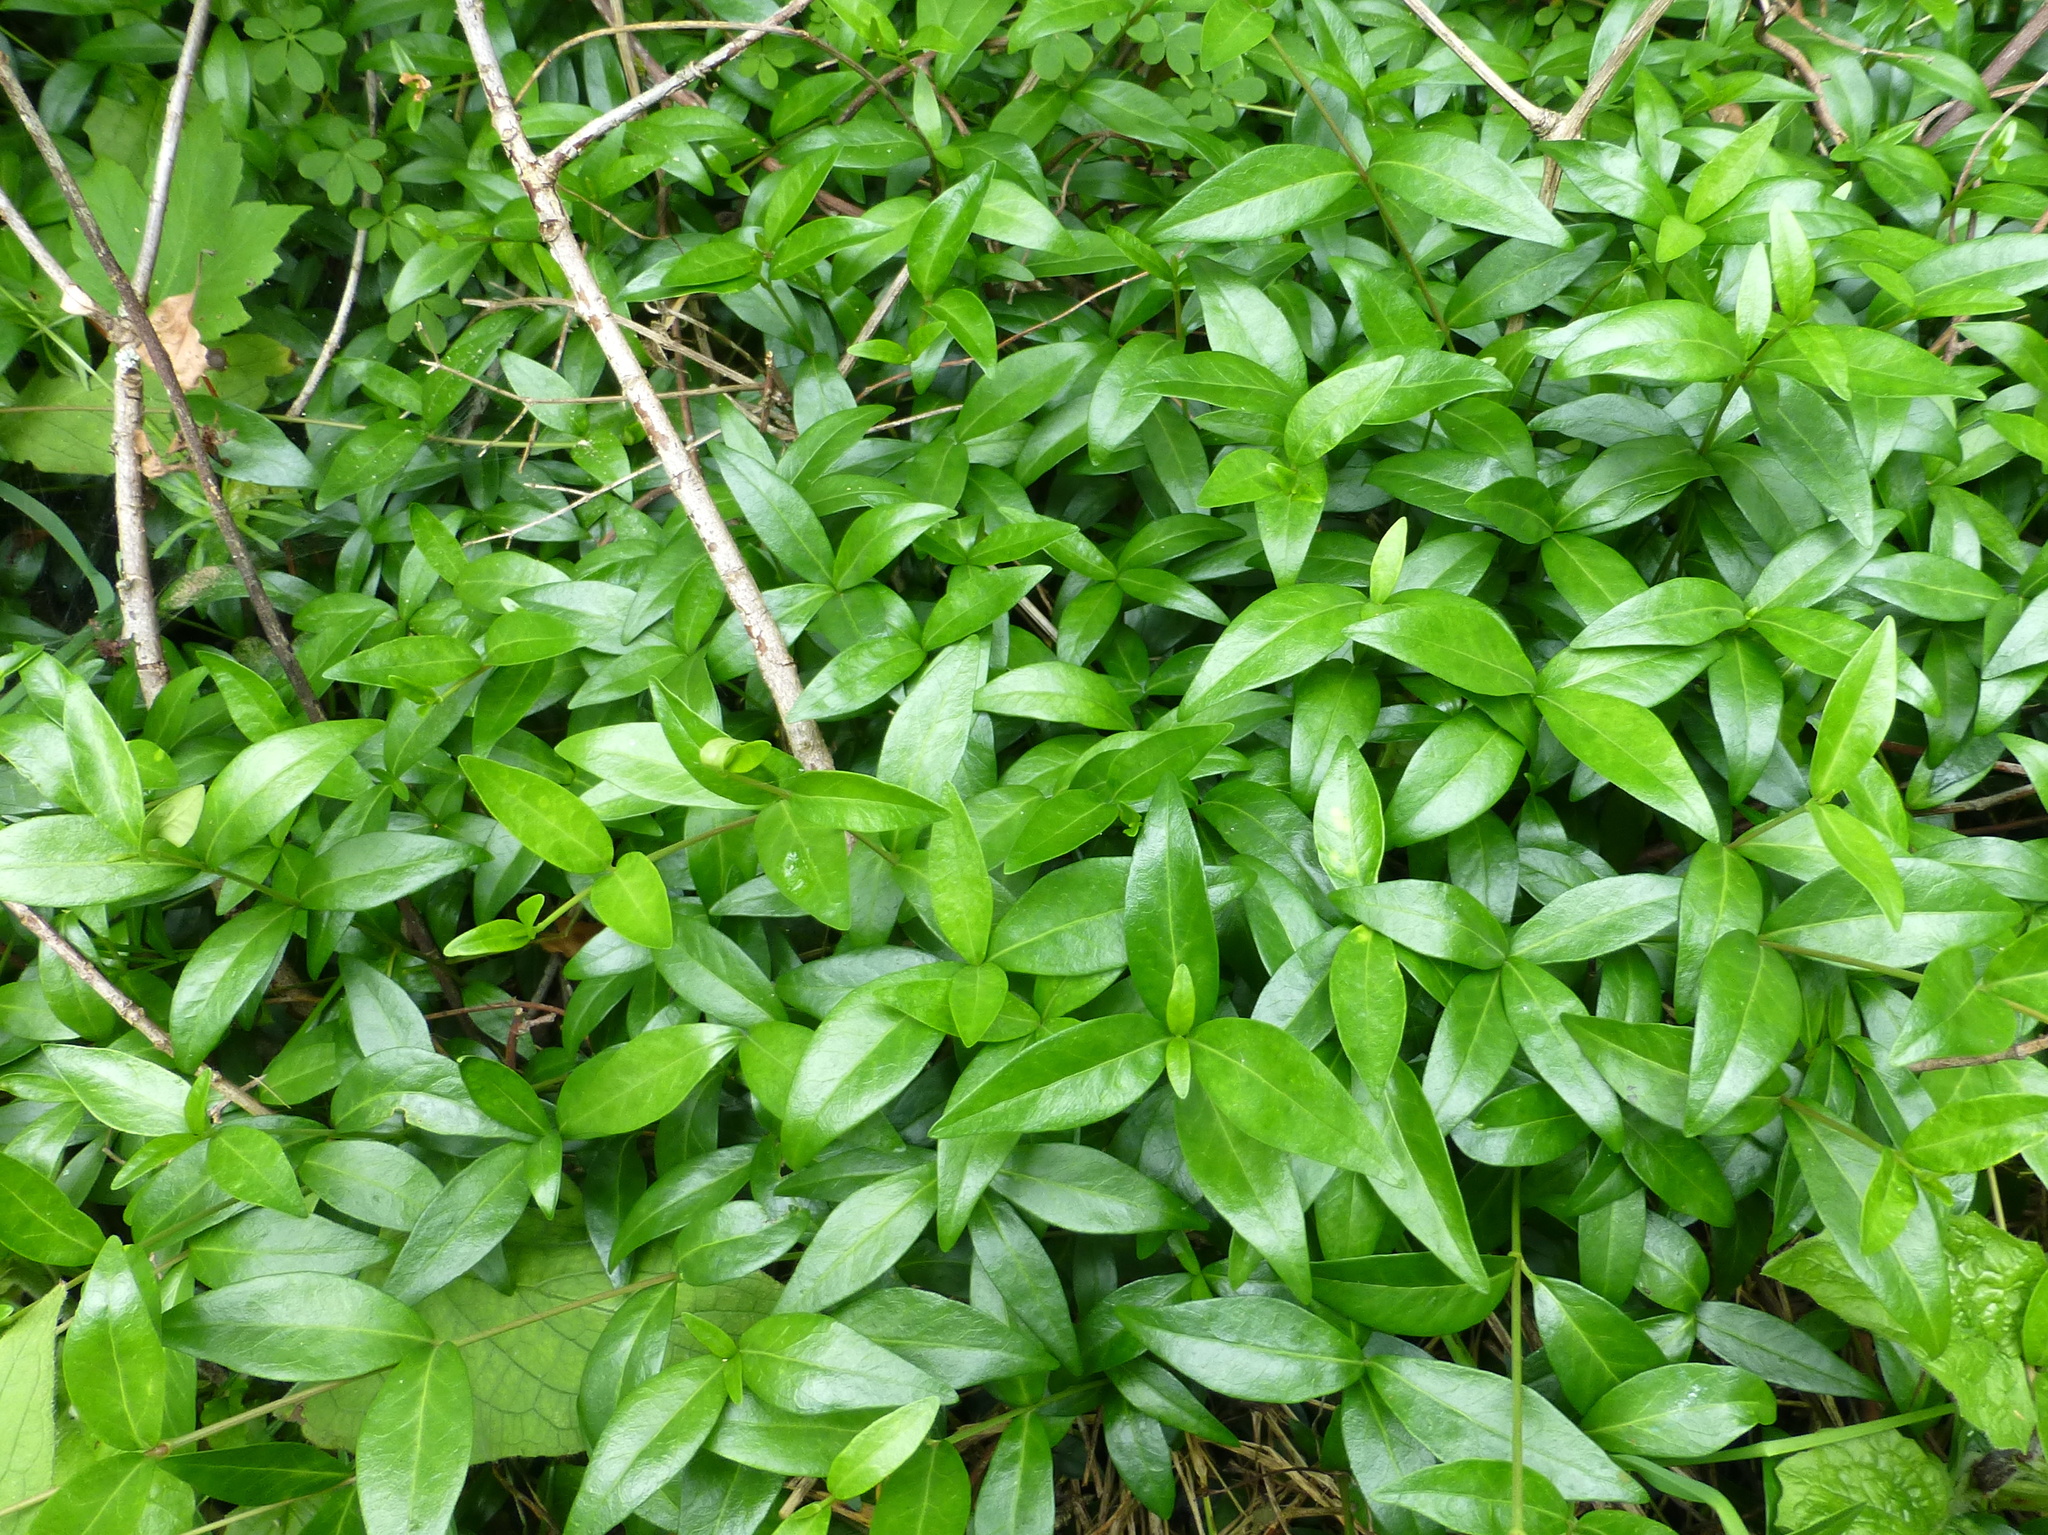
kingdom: Plantae
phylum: Tracheophyta
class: Magnoliopsida
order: Gentianales
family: Apocynaceae
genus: Vinca
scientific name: Vinca major
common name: Greater periwinkle
